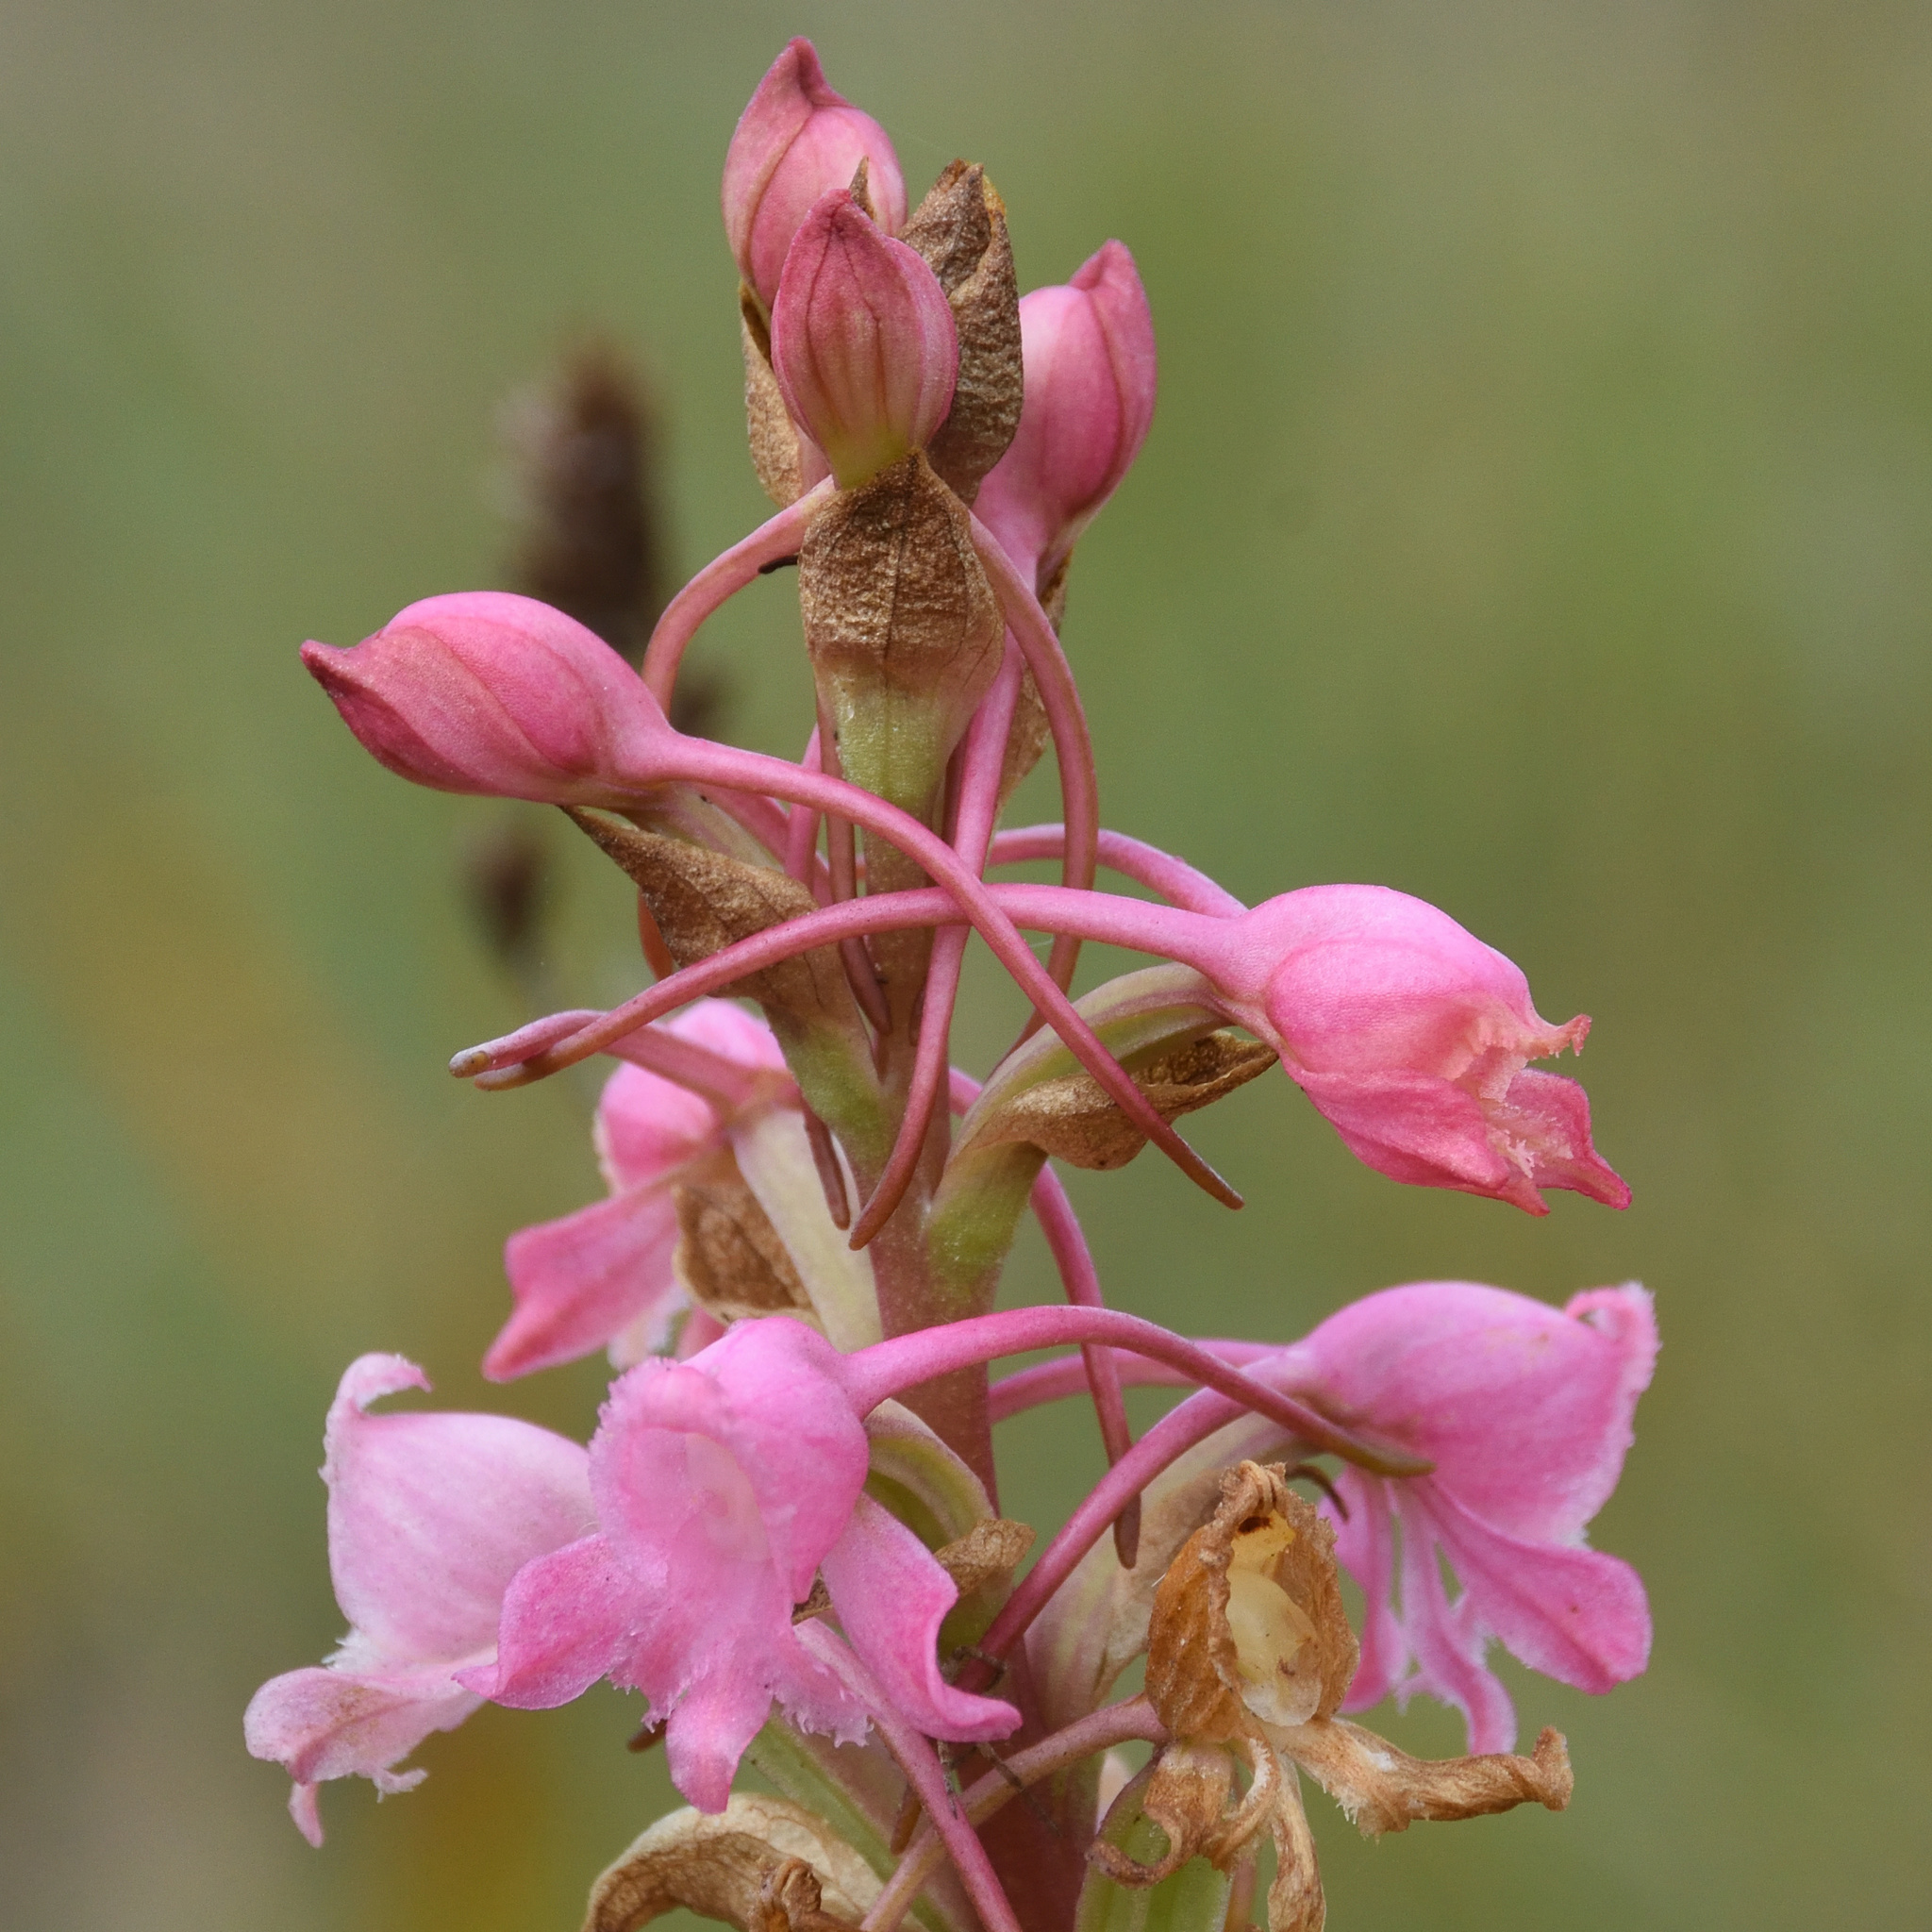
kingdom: Plantae
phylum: Tracheophyta
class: Liliopsida
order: Asparagales
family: Orchidaceae
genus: Satyrium
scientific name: Satyrium membranaceum
